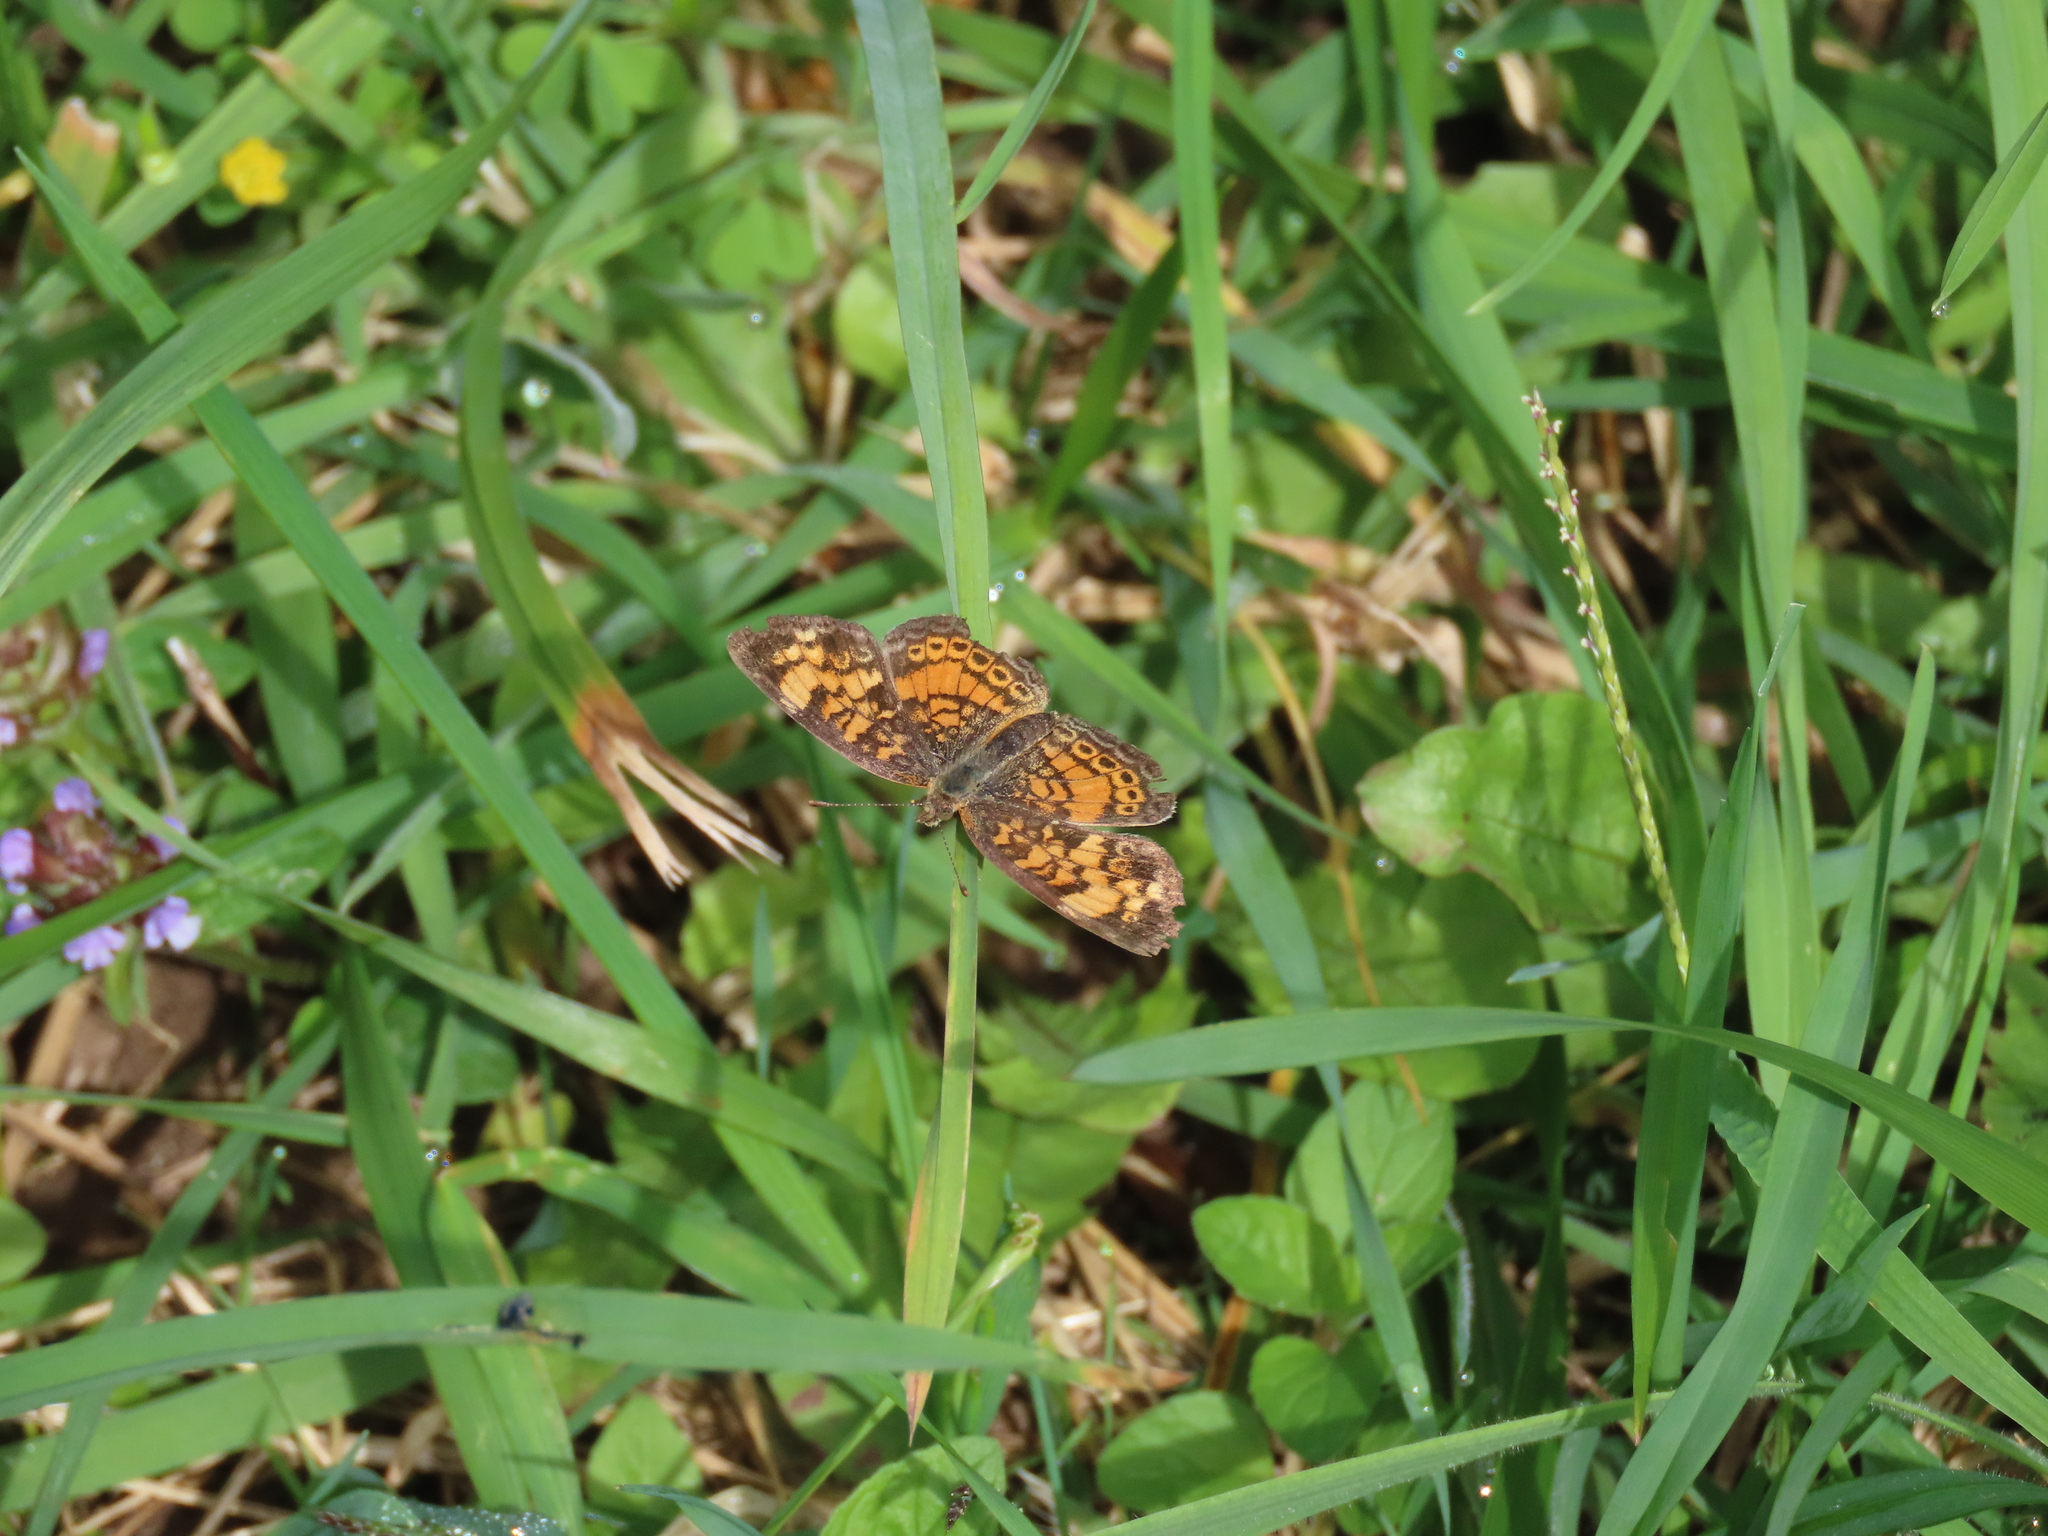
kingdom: Animalia
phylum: Arthropoda
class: Insecta
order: Lepidoptera
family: Nymphalidae
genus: Phyciodes
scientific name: Phyciodes tharos
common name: Pearl crescent
